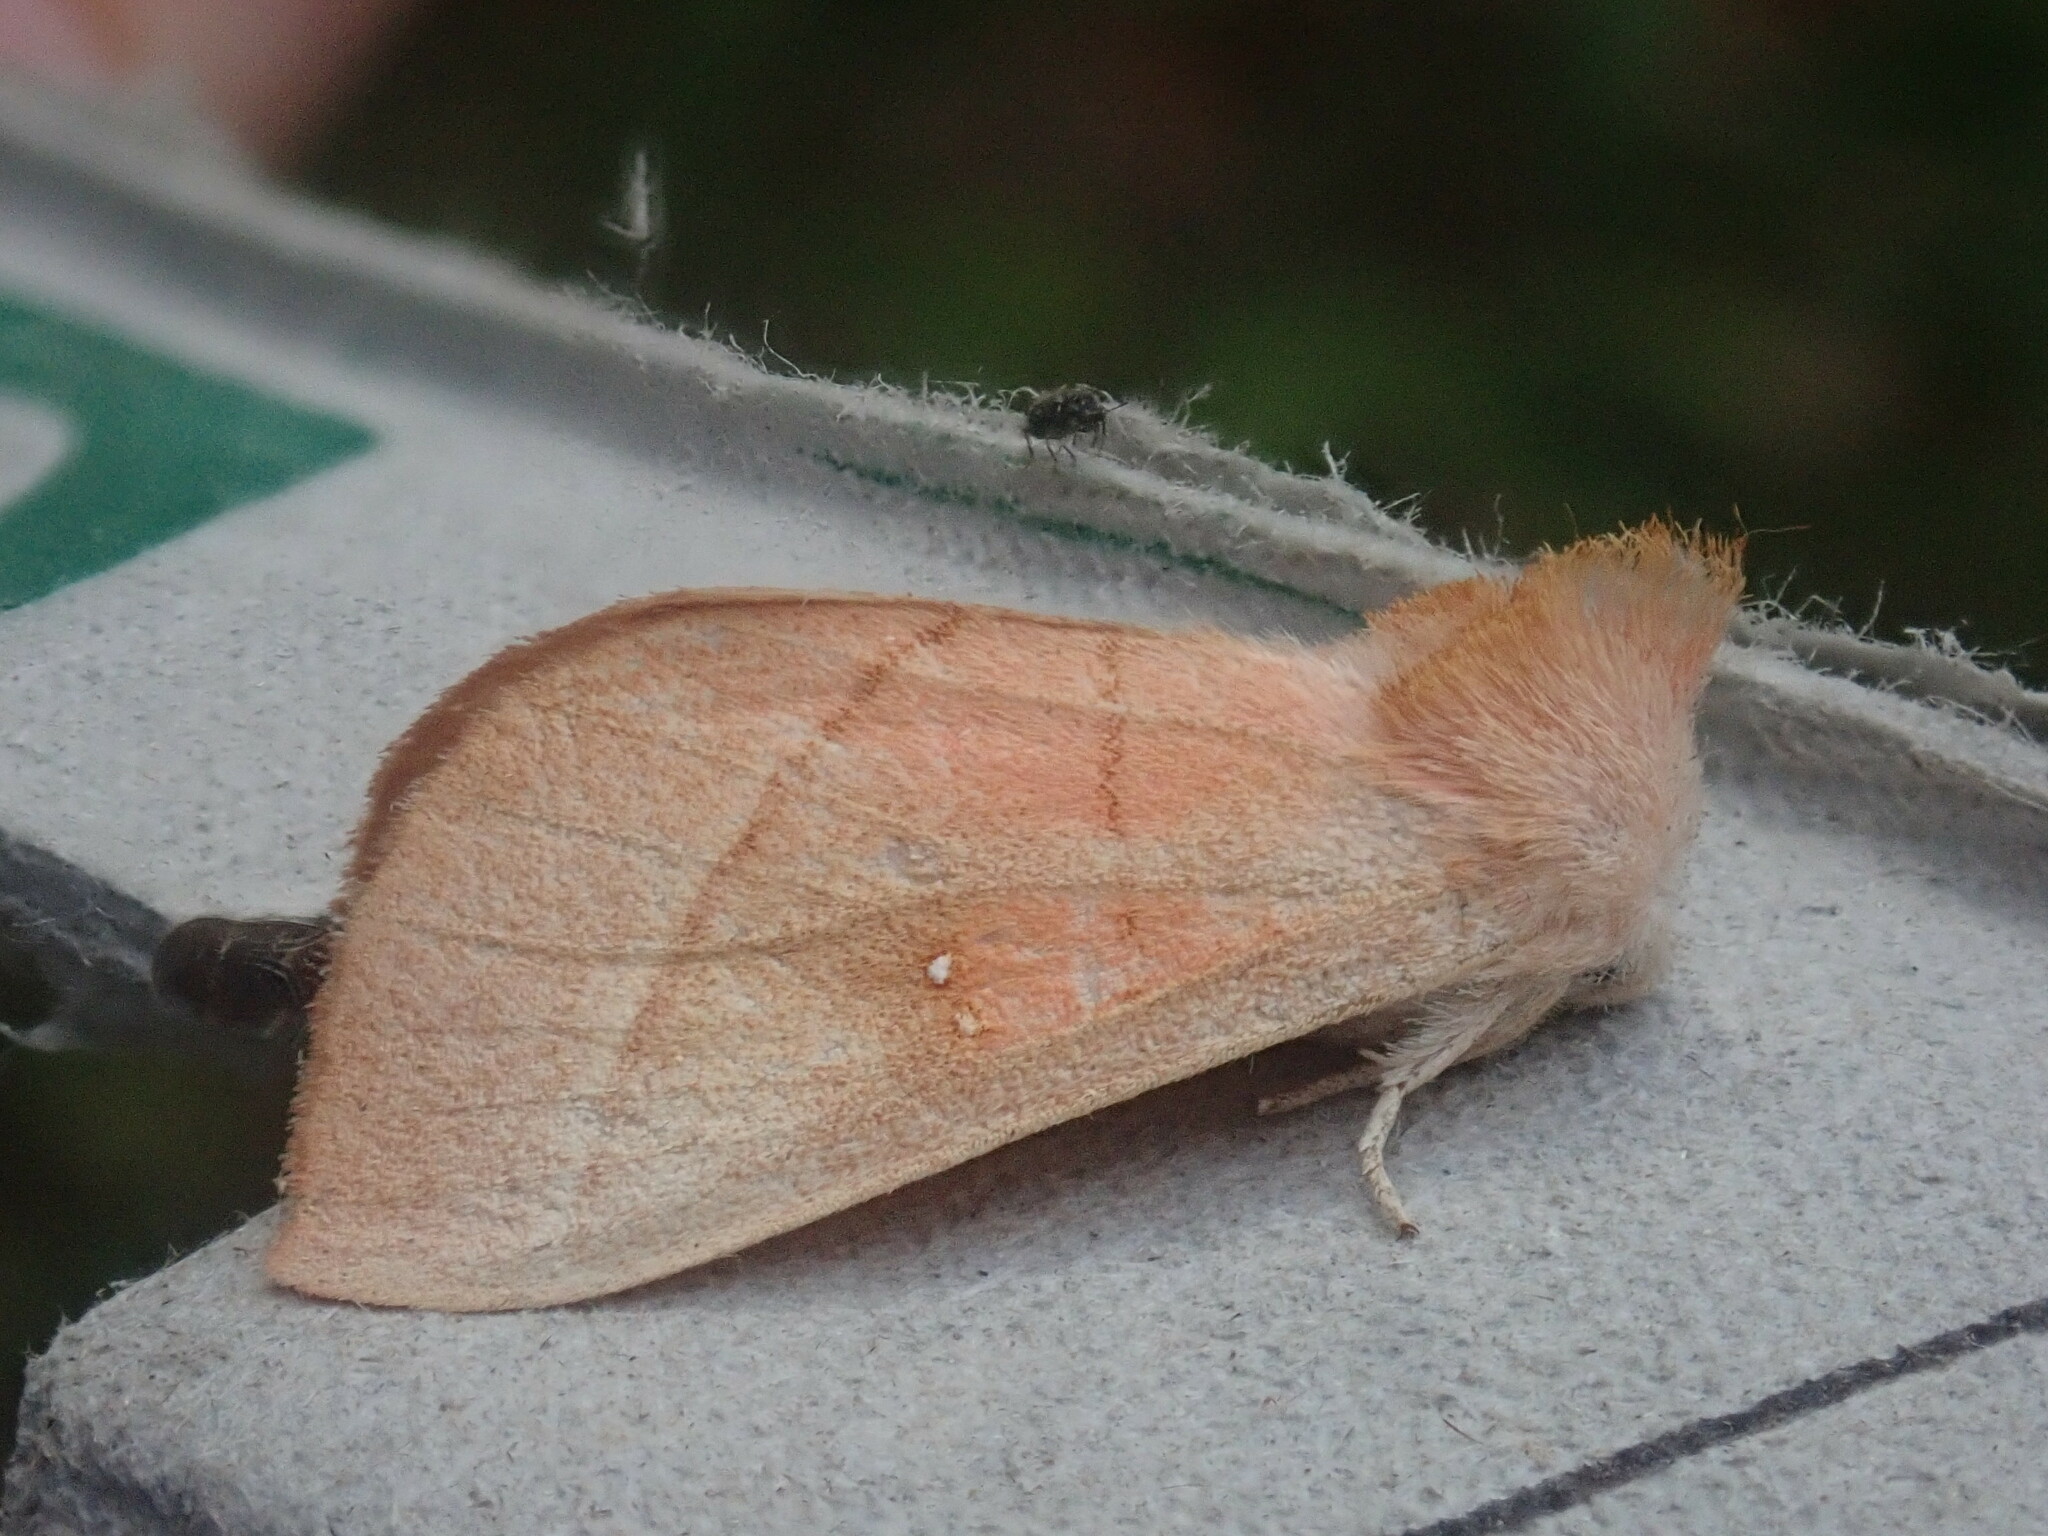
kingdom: Animalia
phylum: Arthropoda
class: Insecta
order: Lepidoptera
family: Notodontidae
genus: Nadata
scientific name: Nadata gibbosa
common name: White-dotted prominent
